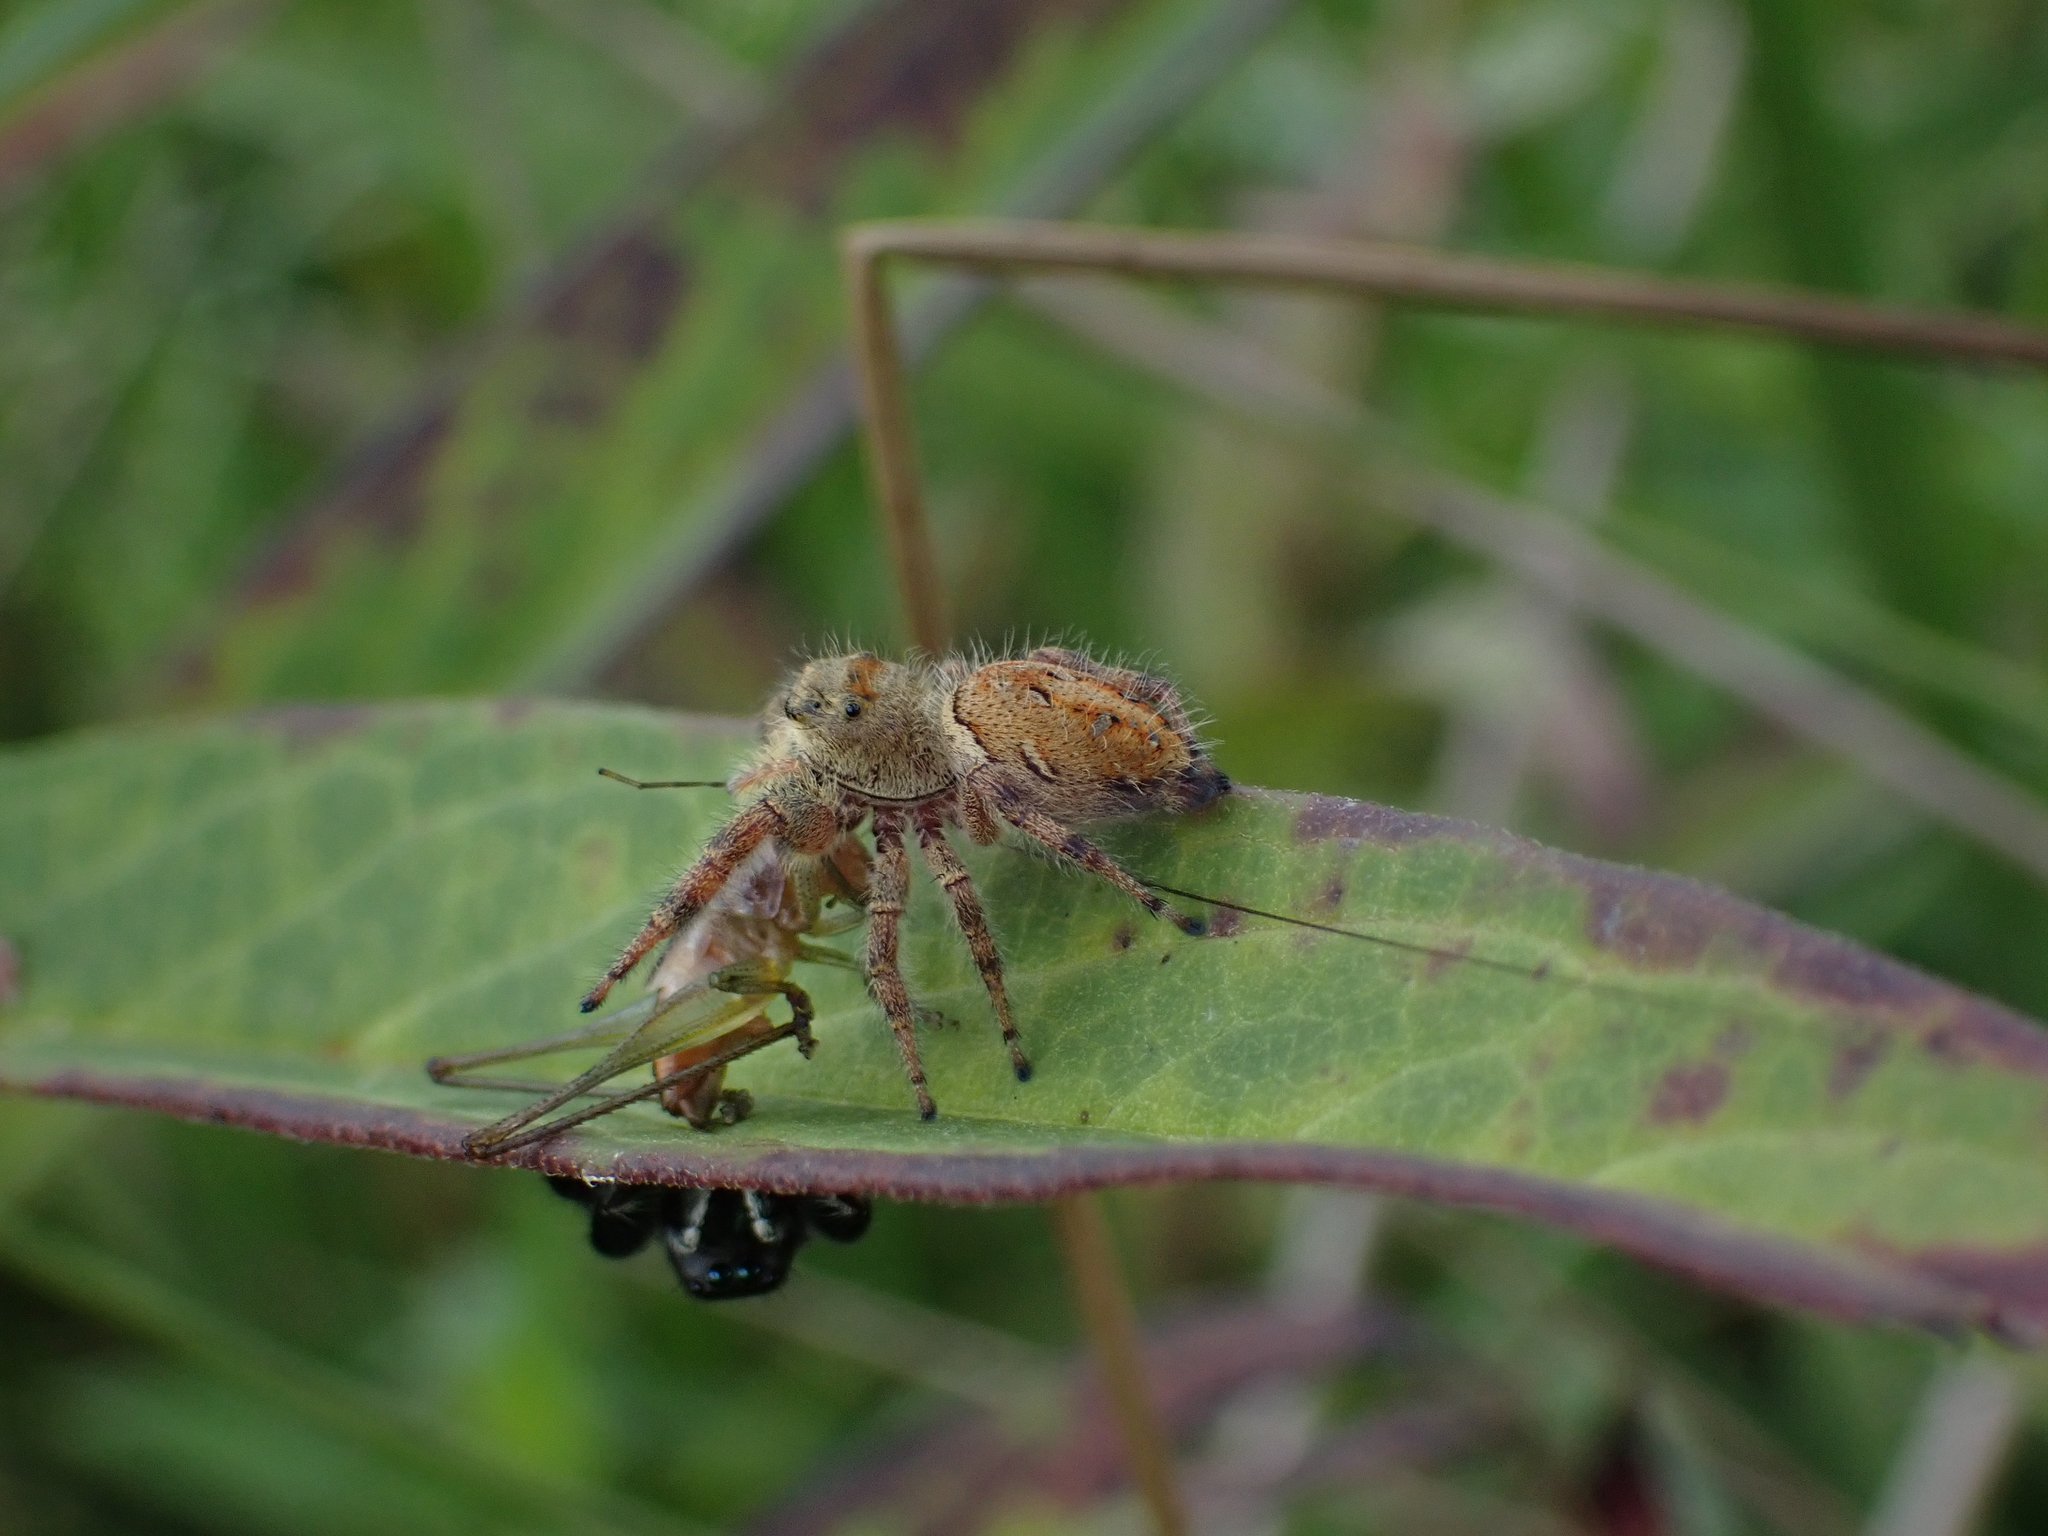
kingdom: Animalia
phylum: Arthropoda
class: Arachnida
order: Araneae
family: Salticidae
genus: Phidippus
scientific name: Phidippus clarus
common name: Brilliant jumping spider
